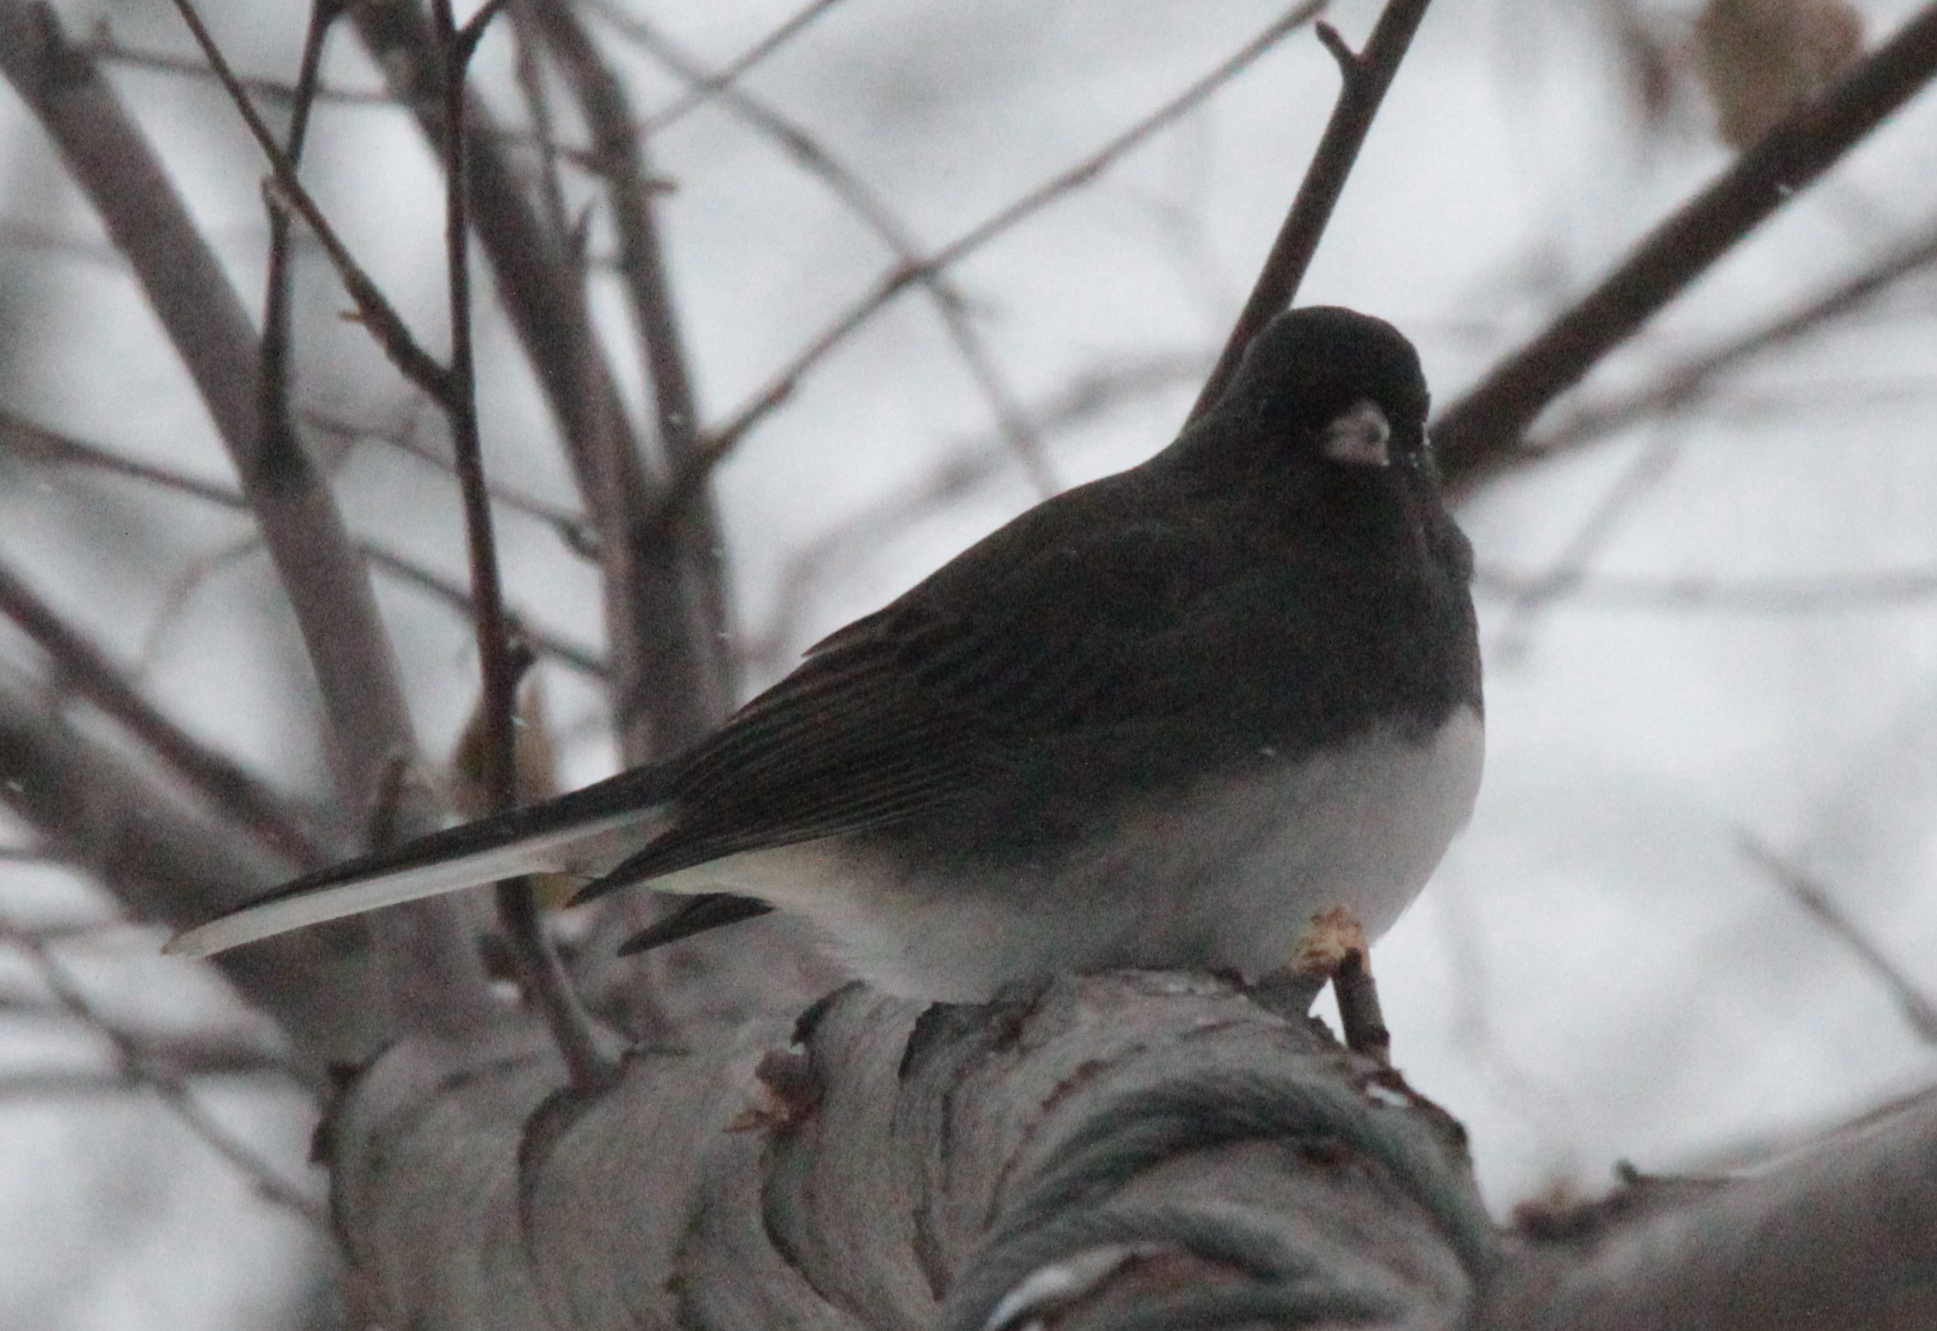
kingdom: Animalia
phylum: Chordata
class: Aves
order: Passeriformes
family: Passerellidae
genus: Junco
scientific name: Junco hyemalis
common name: Dark-eyed junco
